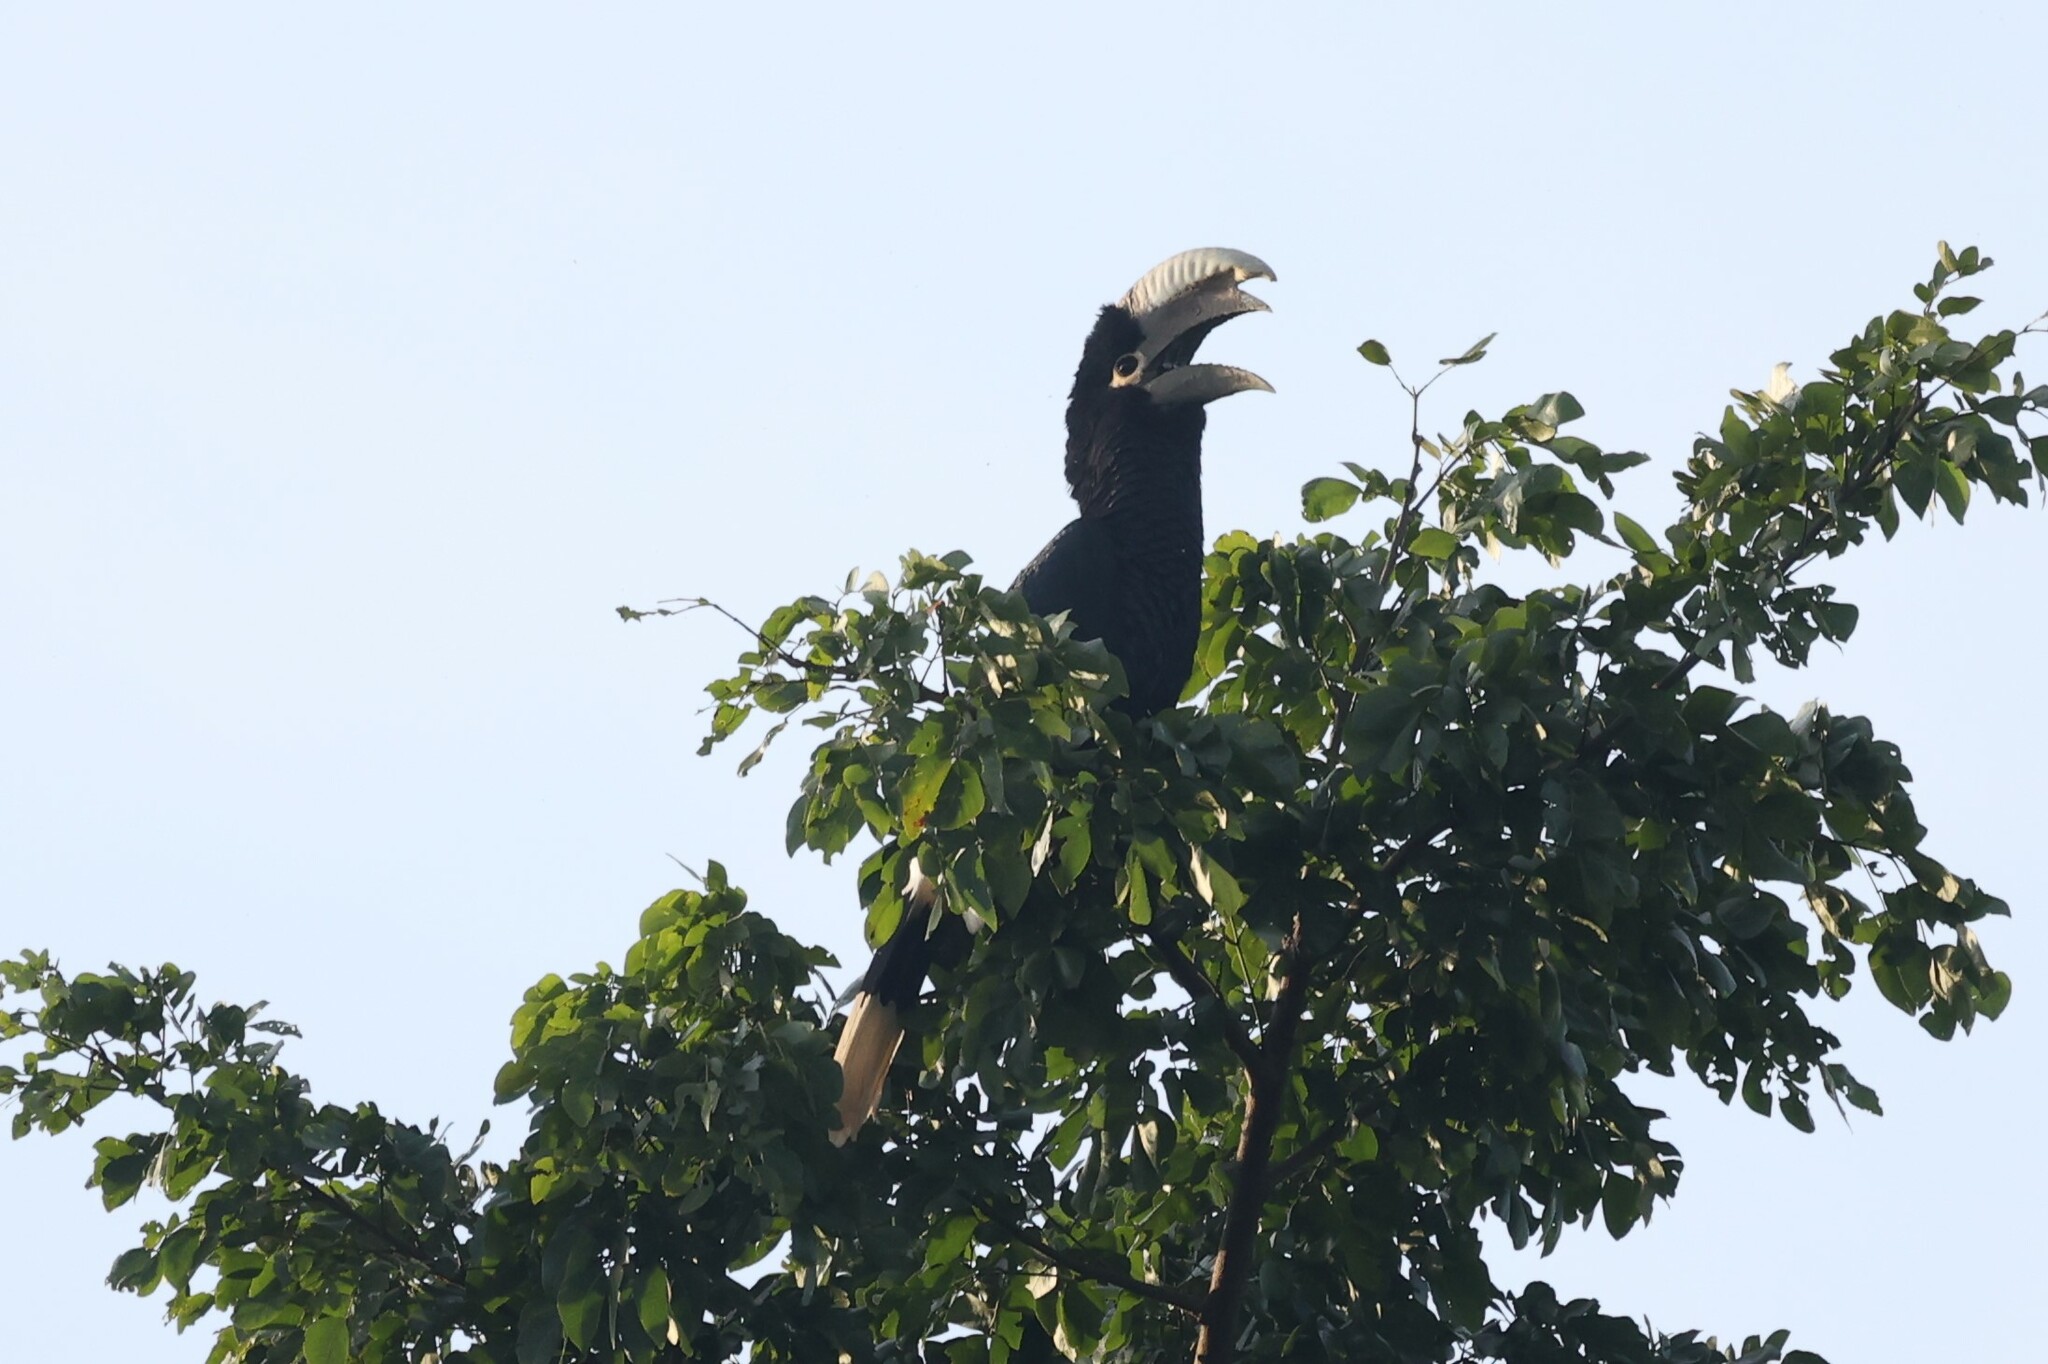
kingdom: Animalia
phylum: Chordata
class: Aves
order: Bucerotiformes
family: Bucerotidae
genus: Bycanistes
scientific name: Bycanistes albotibialis
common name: White-thighed hornbill
